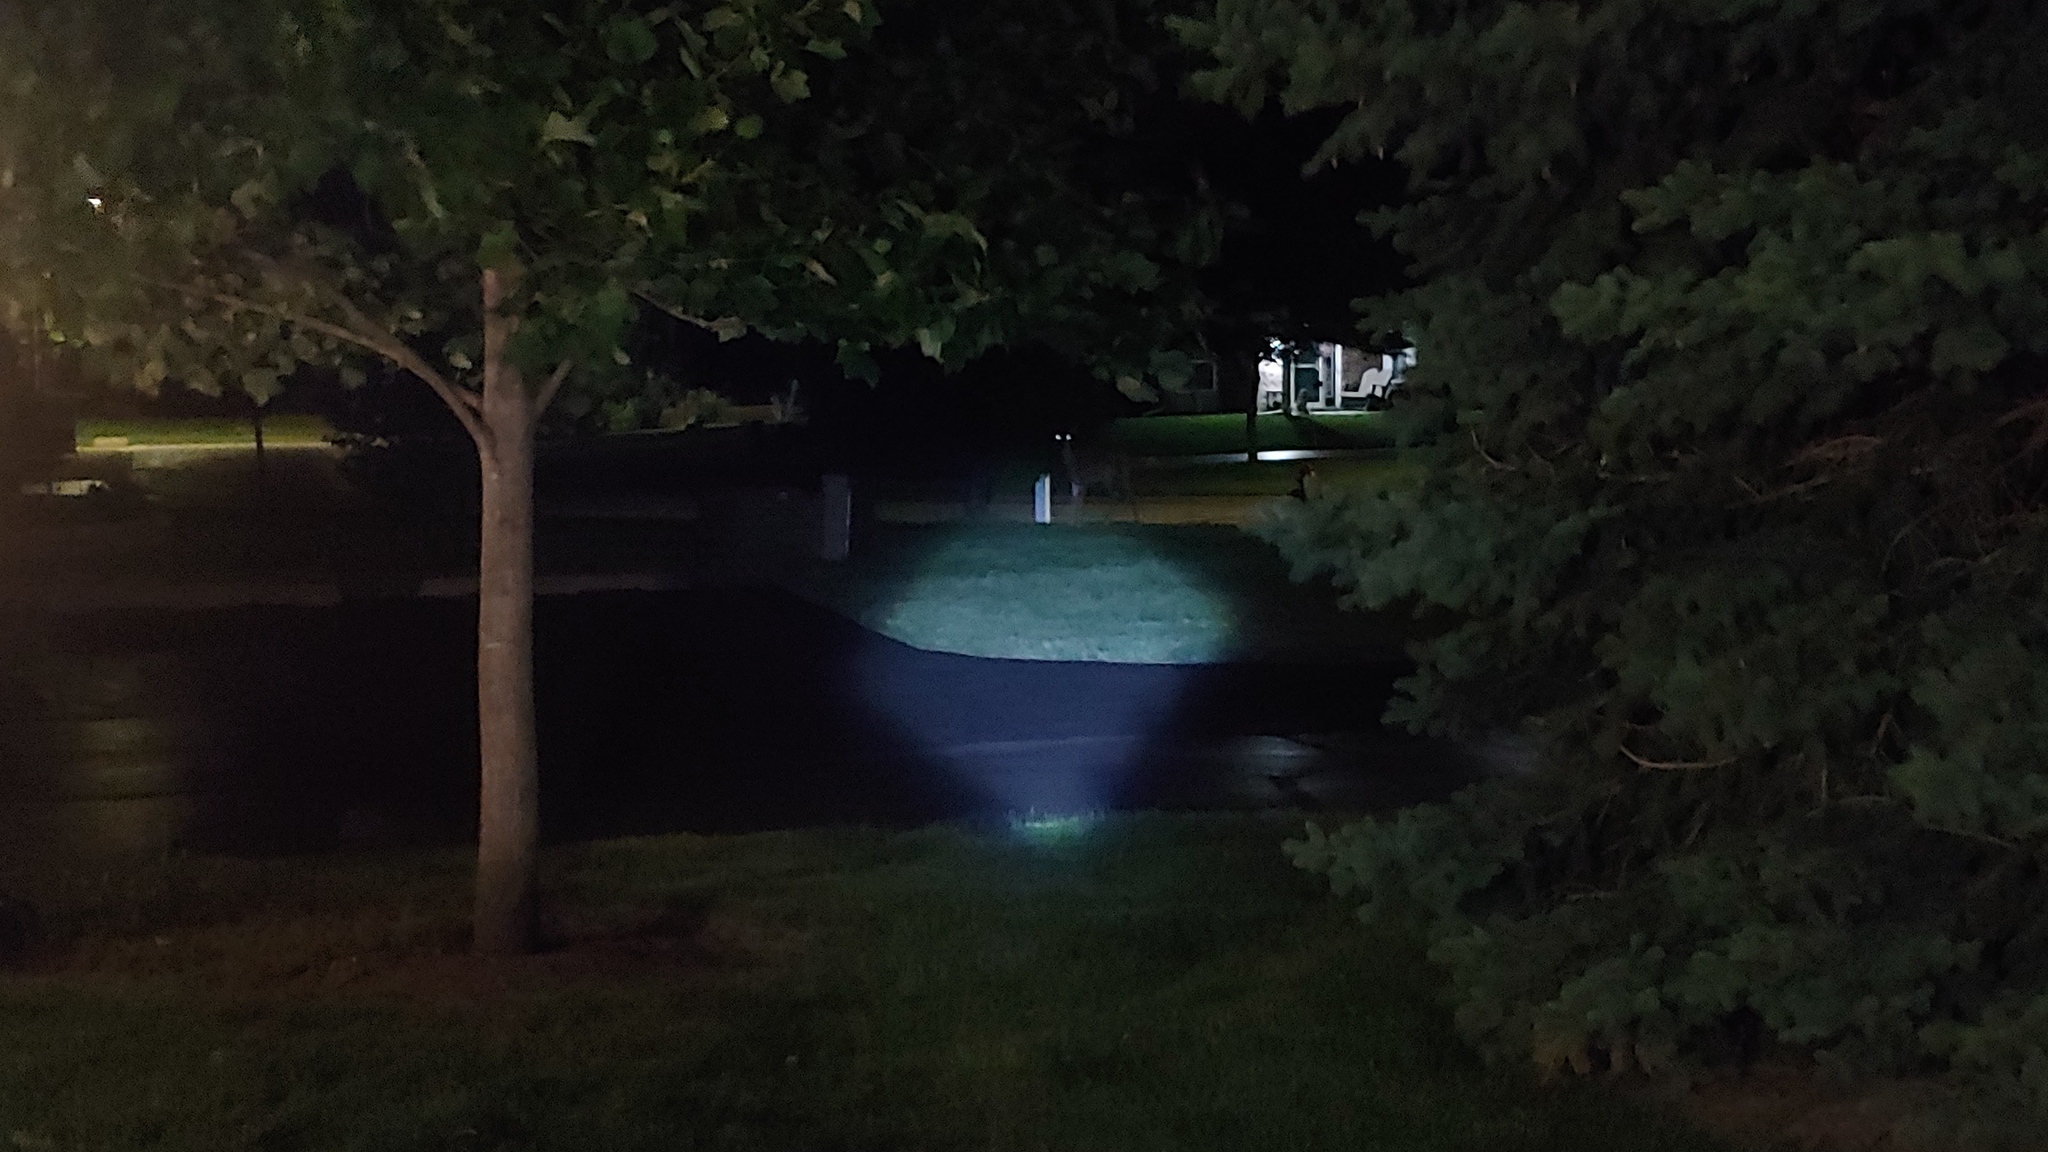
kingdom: Animalia
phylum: Chordata
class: Mammalia
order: Artiodactyla
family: Cervidae
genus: Odocoileus
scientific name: Odocoileus virginianus
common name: White-tailed deer
